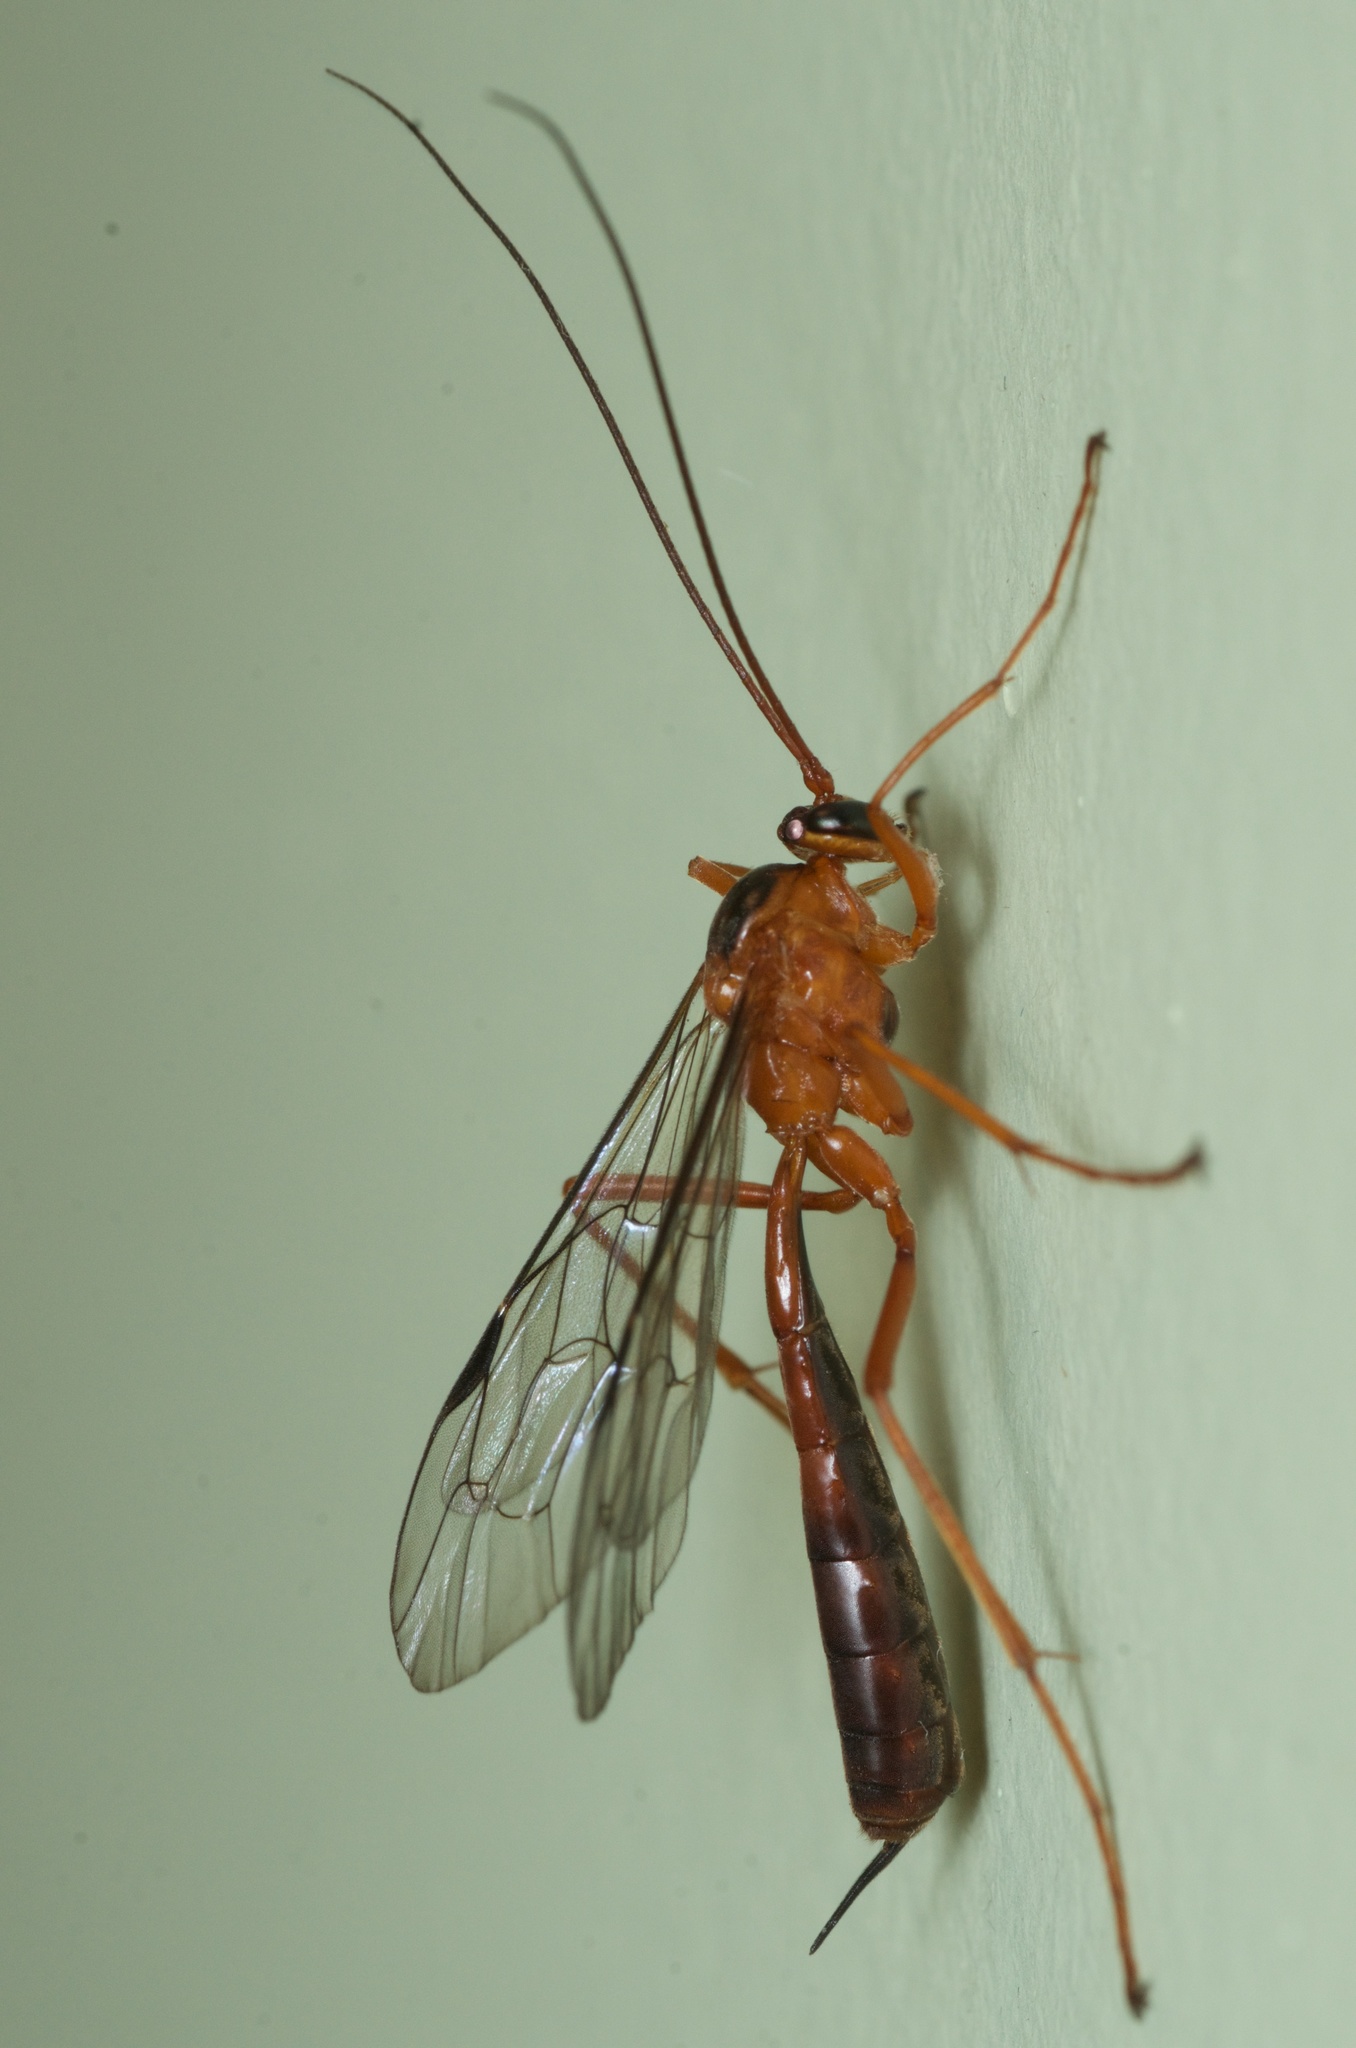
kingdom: Animalia
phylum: Arthropoda
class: Insecta
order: Hymenoptera
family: Ichneumonidae
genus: Netelia
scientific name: Netelia ephippiata
